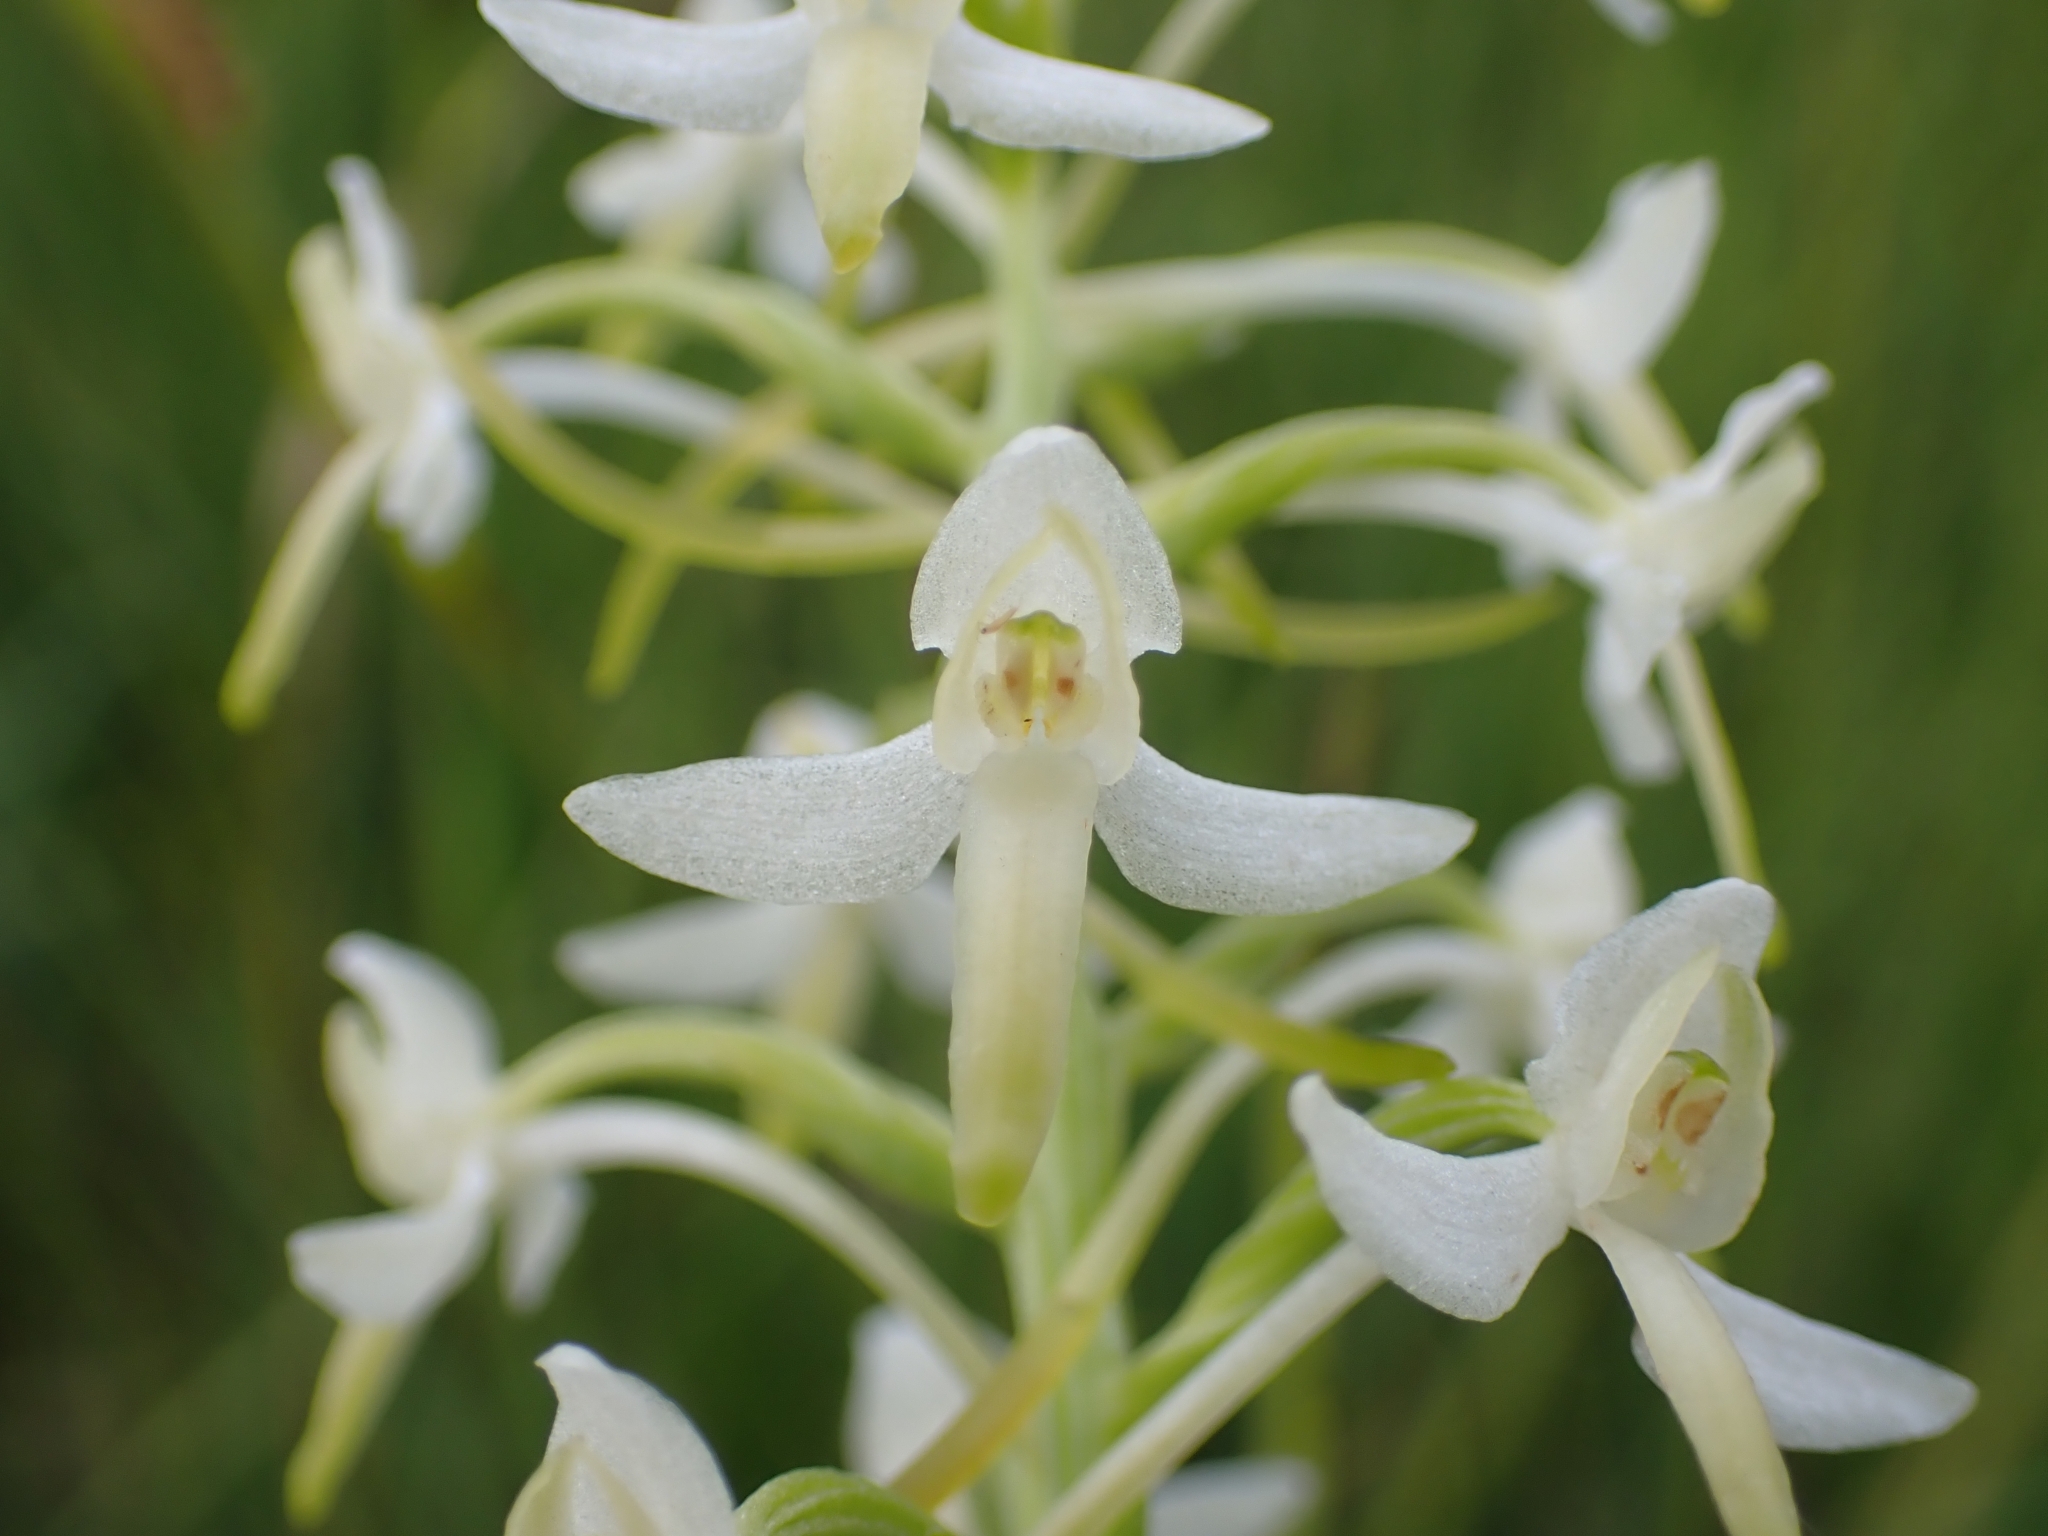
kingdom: Plantae
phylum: Tracheophyta
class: Liliopsida
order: Asparagales
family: Orchidaceae
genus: Platanthera
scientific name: Platanthera bifolia
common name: Lesser butterfly-orchid
